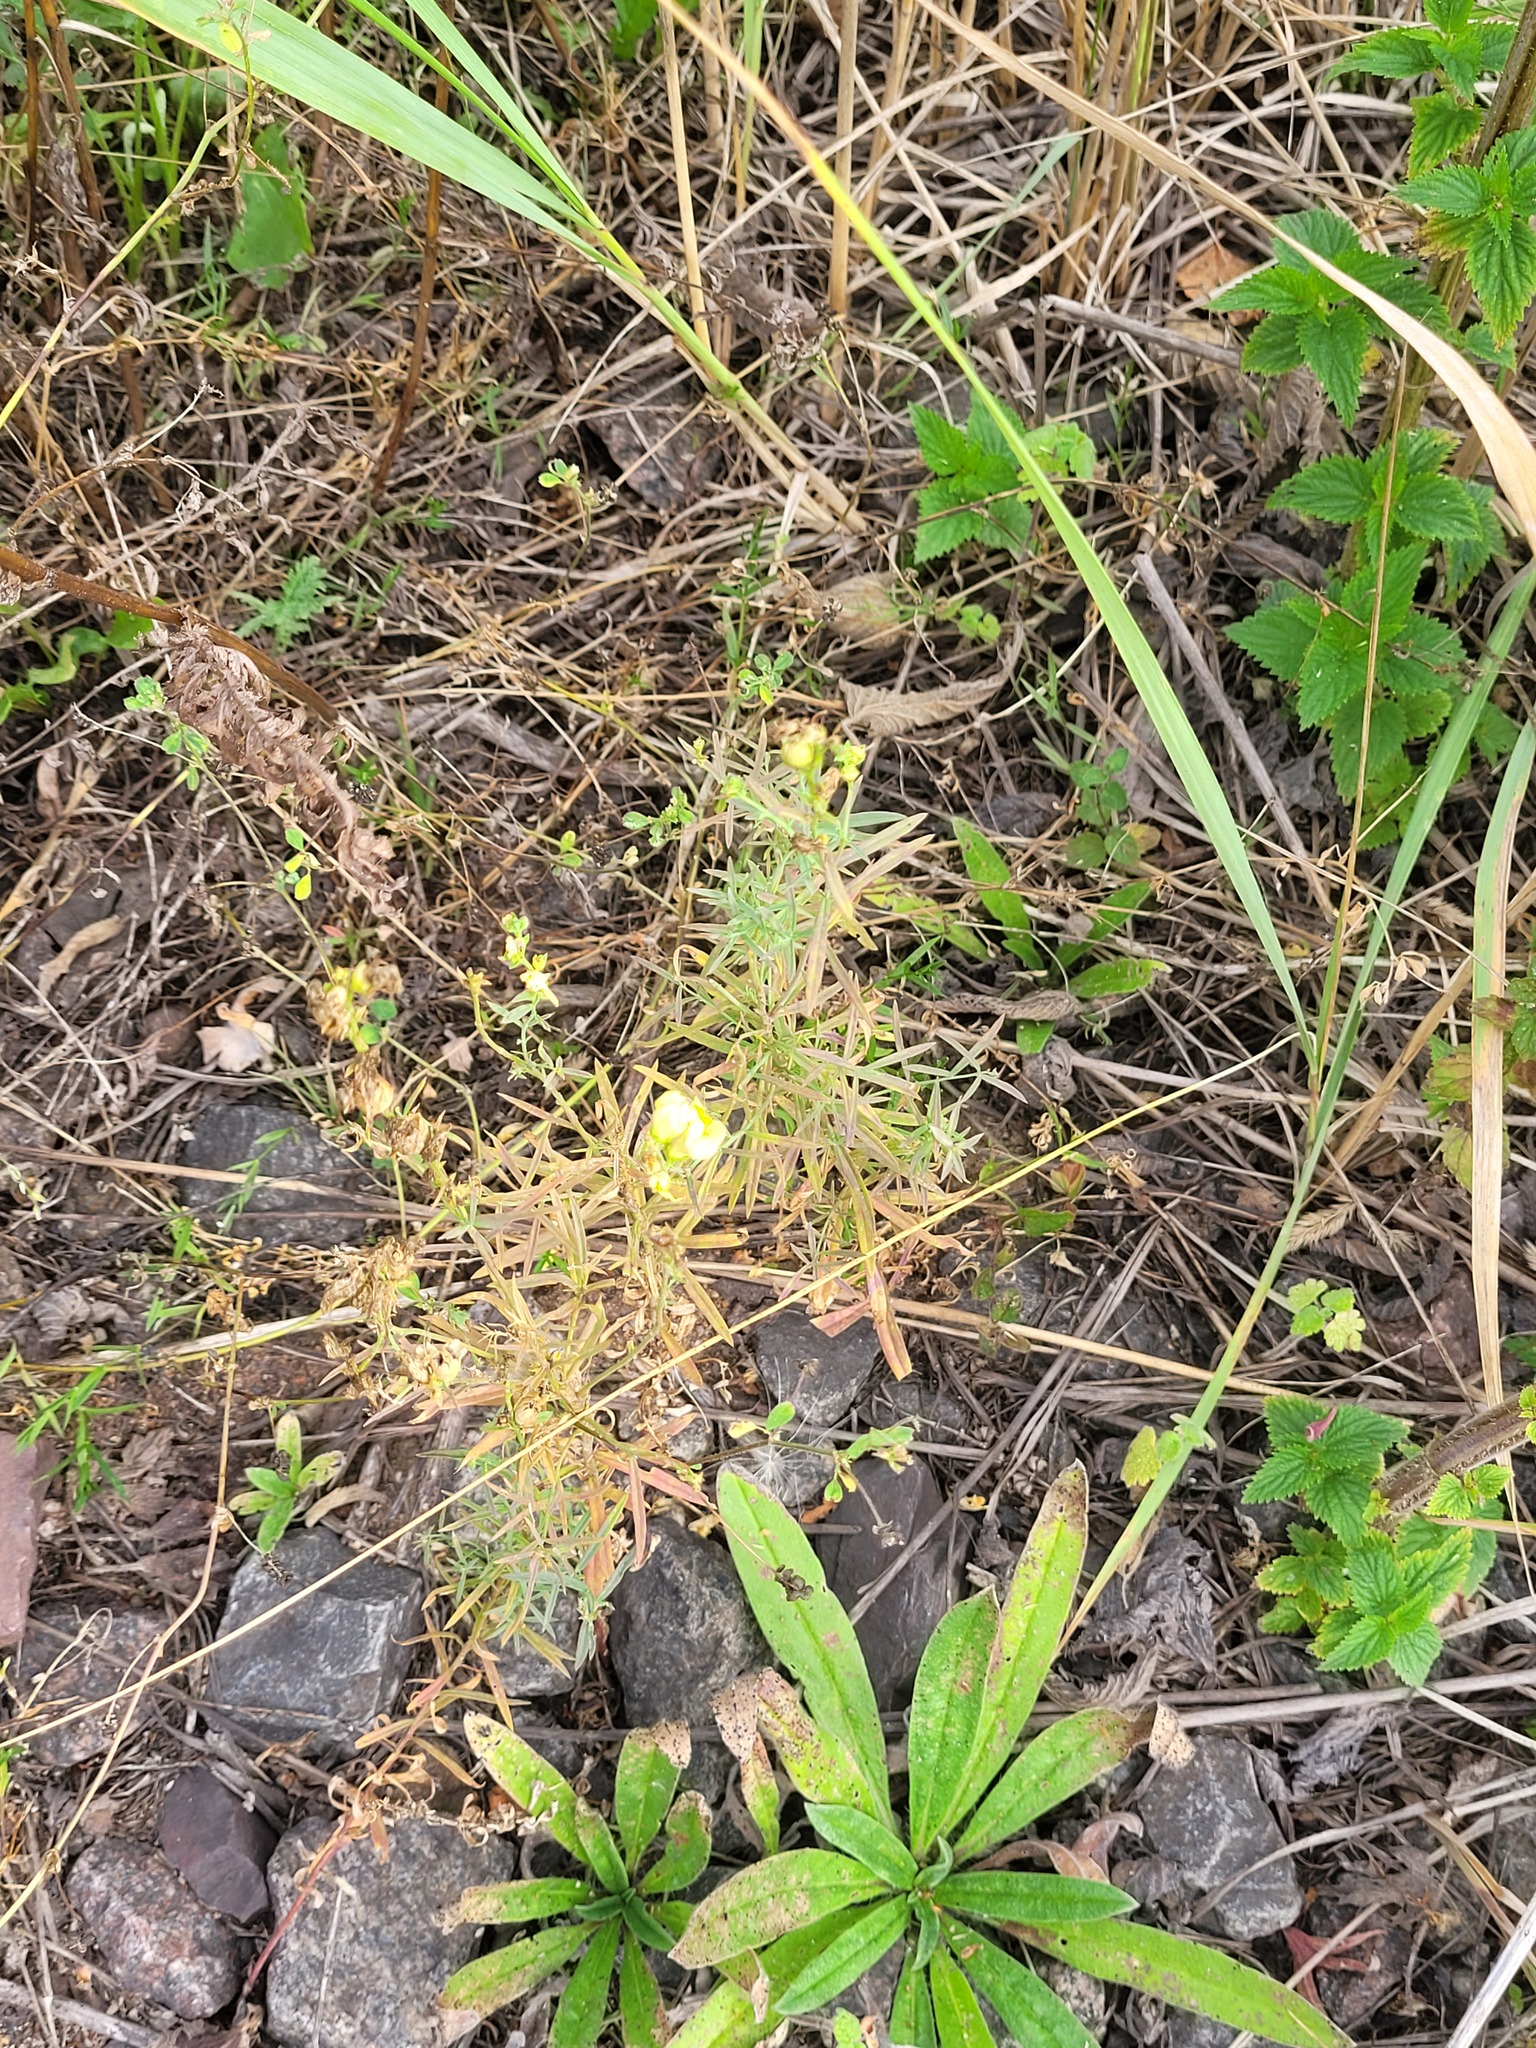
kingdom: Plantae
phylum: Tracheophyta
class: Magnoliopsida
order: Lamiales
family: Plantaginaceae
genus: Linaria
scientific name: Linaria vulgaris
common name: Butter and eggs
